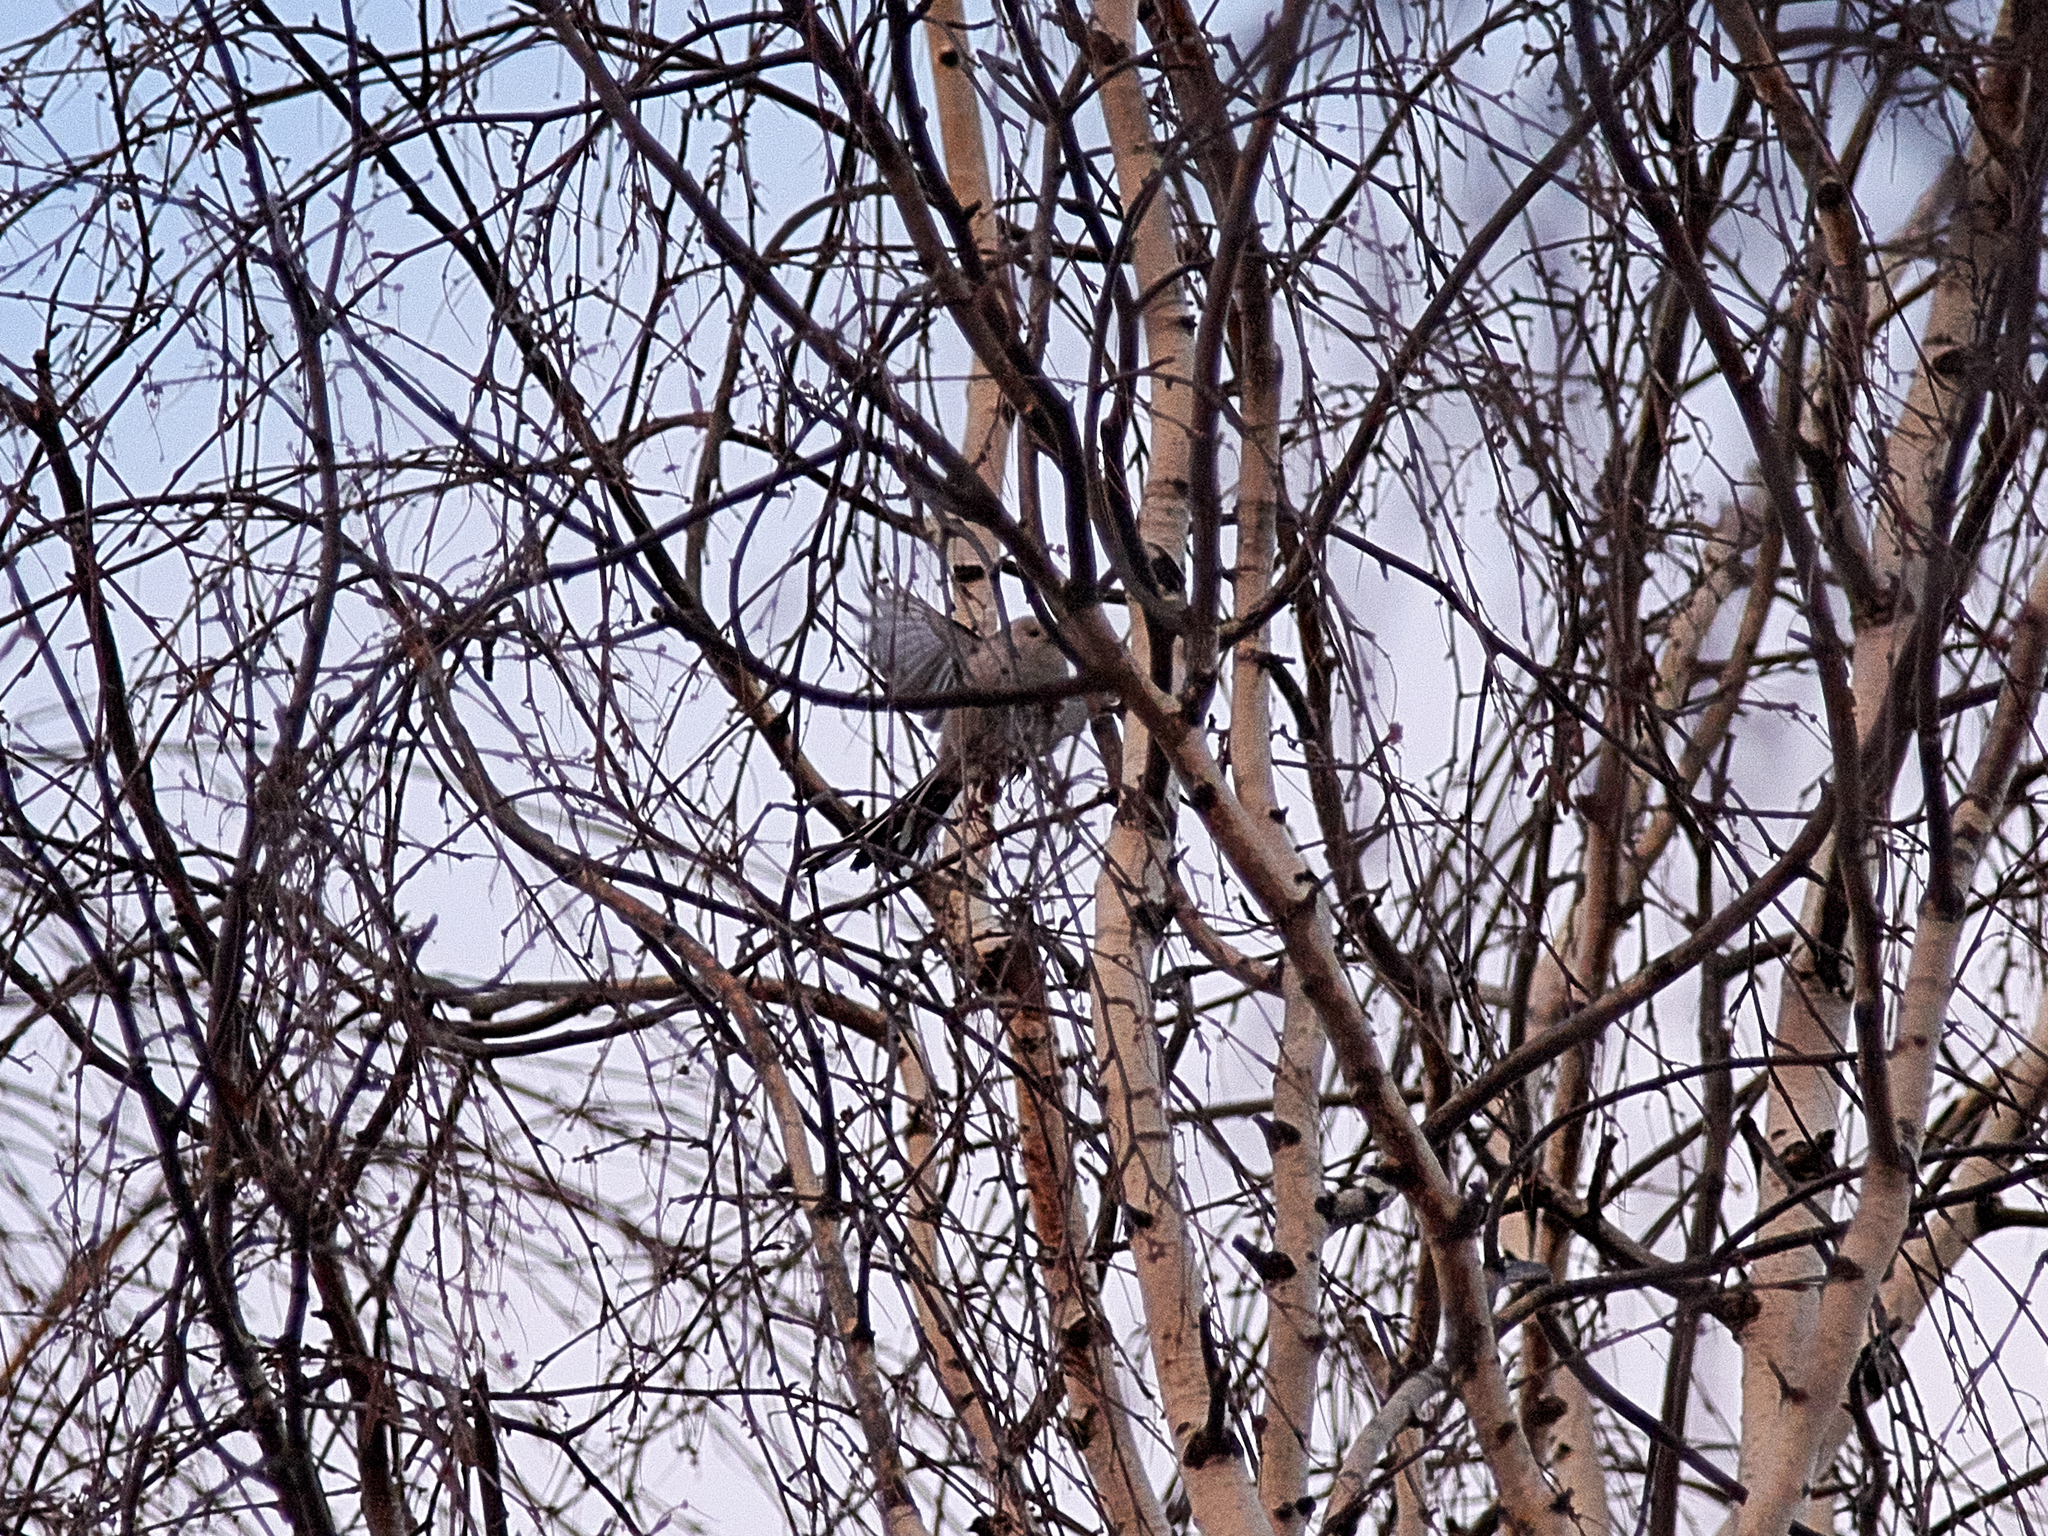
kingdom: Animalia
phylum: Chordata
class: Aves
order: Passeriformes
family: Aegithalidae
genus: Aegithalos
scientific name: Aegithalos caudatus
